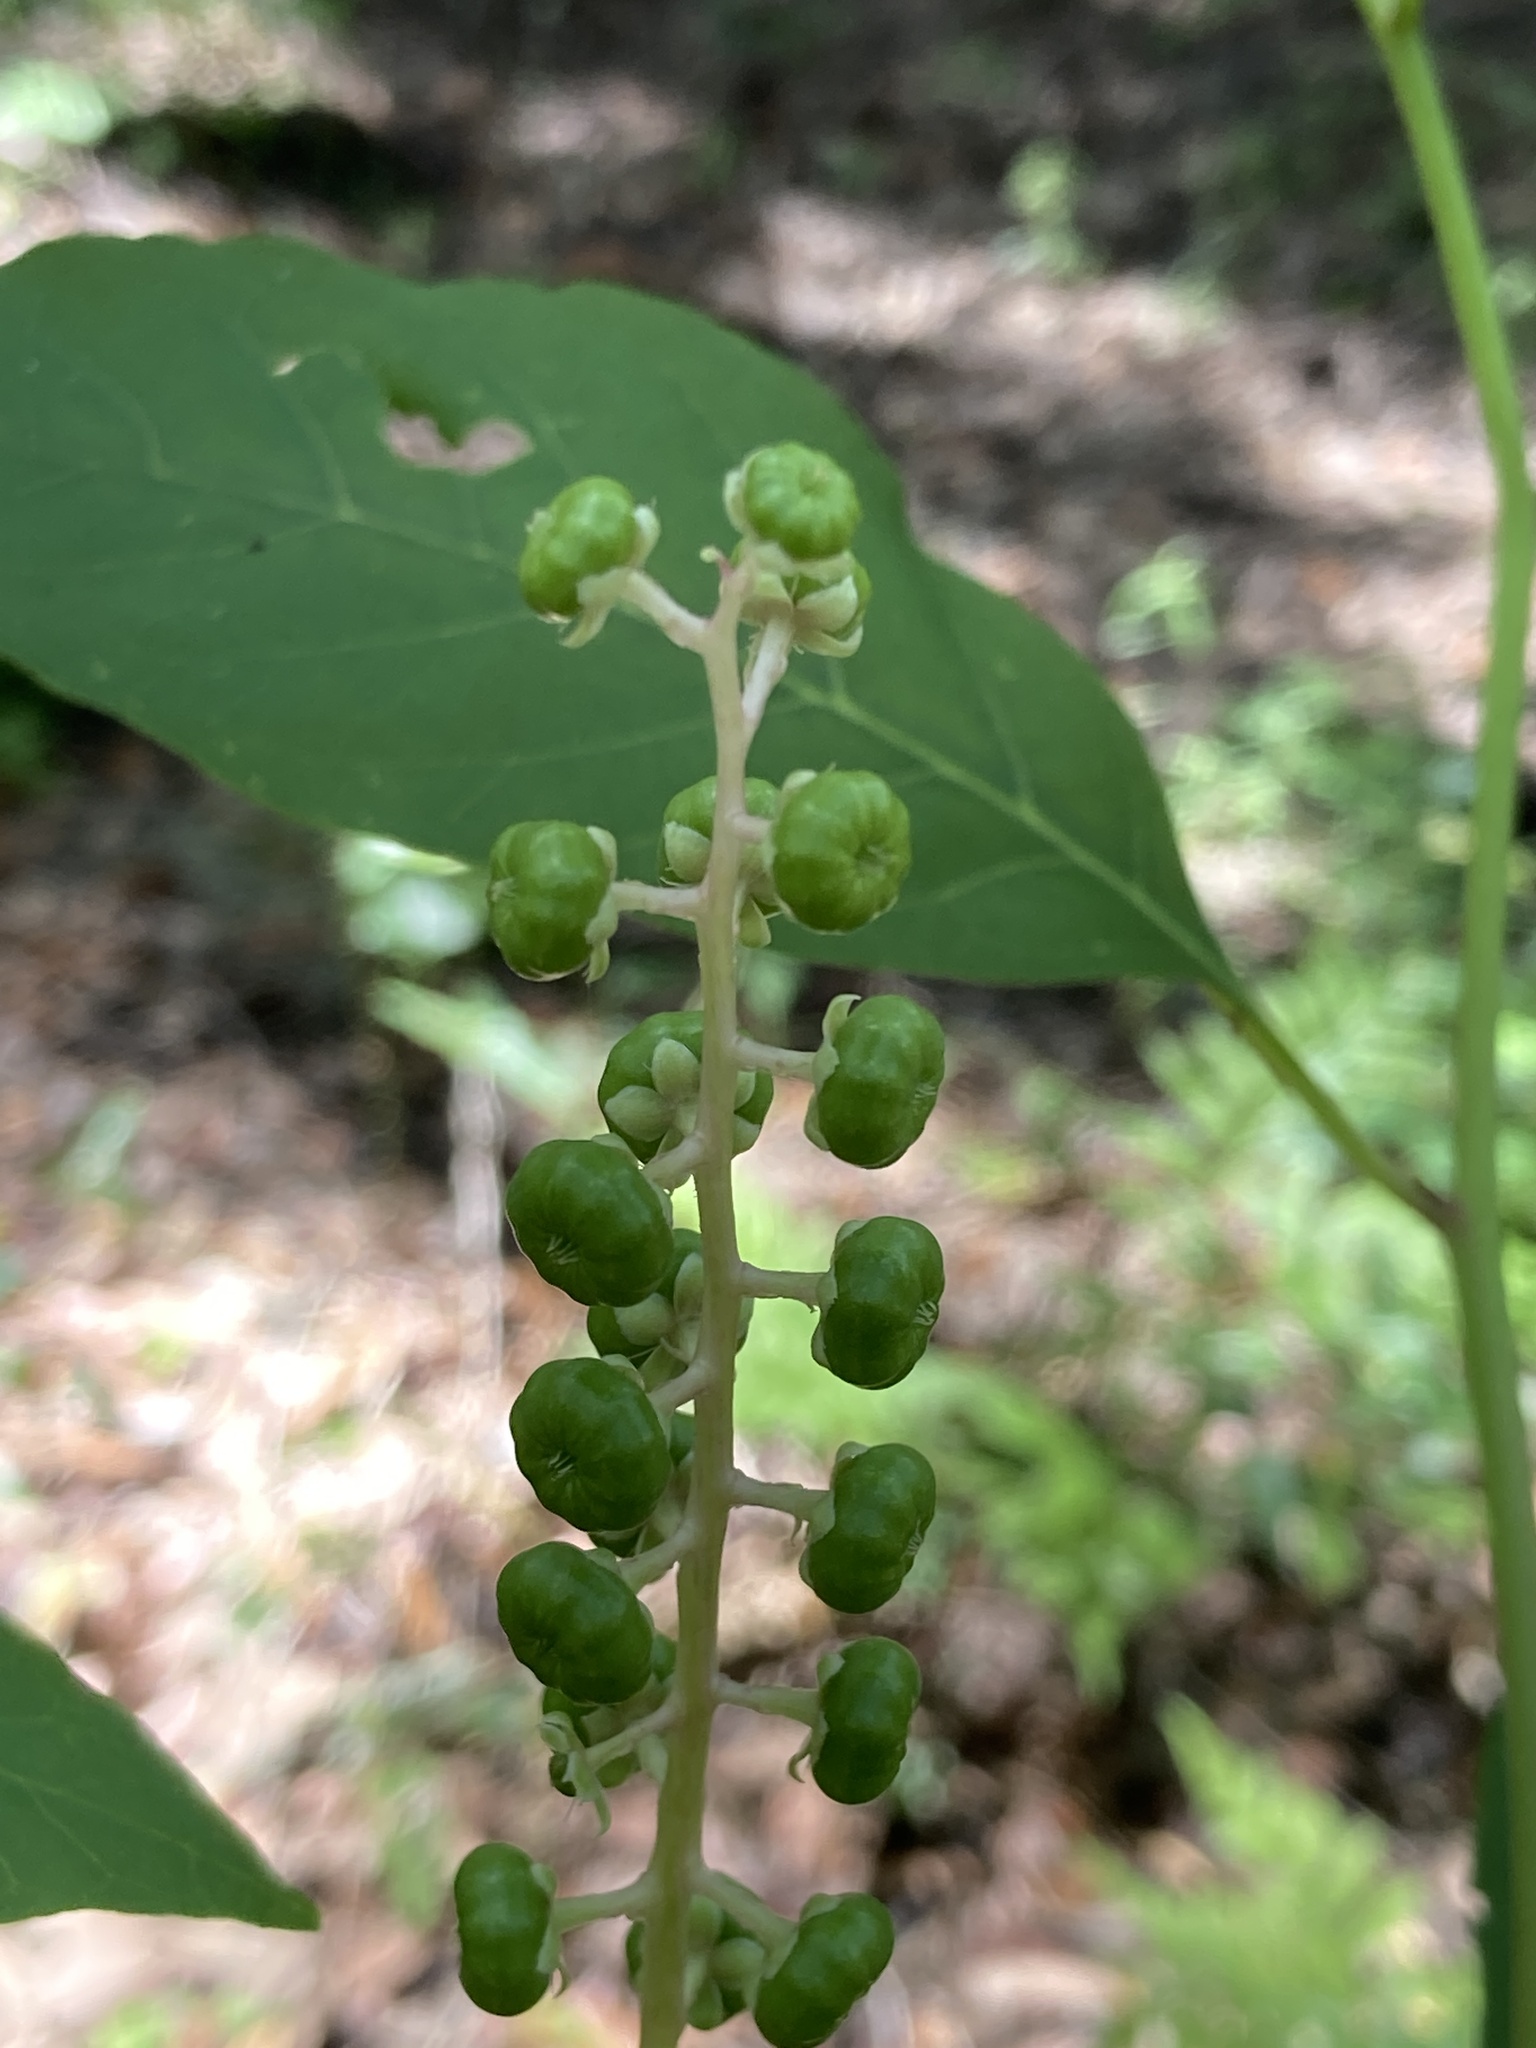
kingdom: Plantae
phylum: Tracheophyta
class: Magnoliopsida
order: Caryophyllales
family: Phytolaccaceae
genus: Phytolacca
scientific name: Phytolacca americana
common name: American pokeweed
